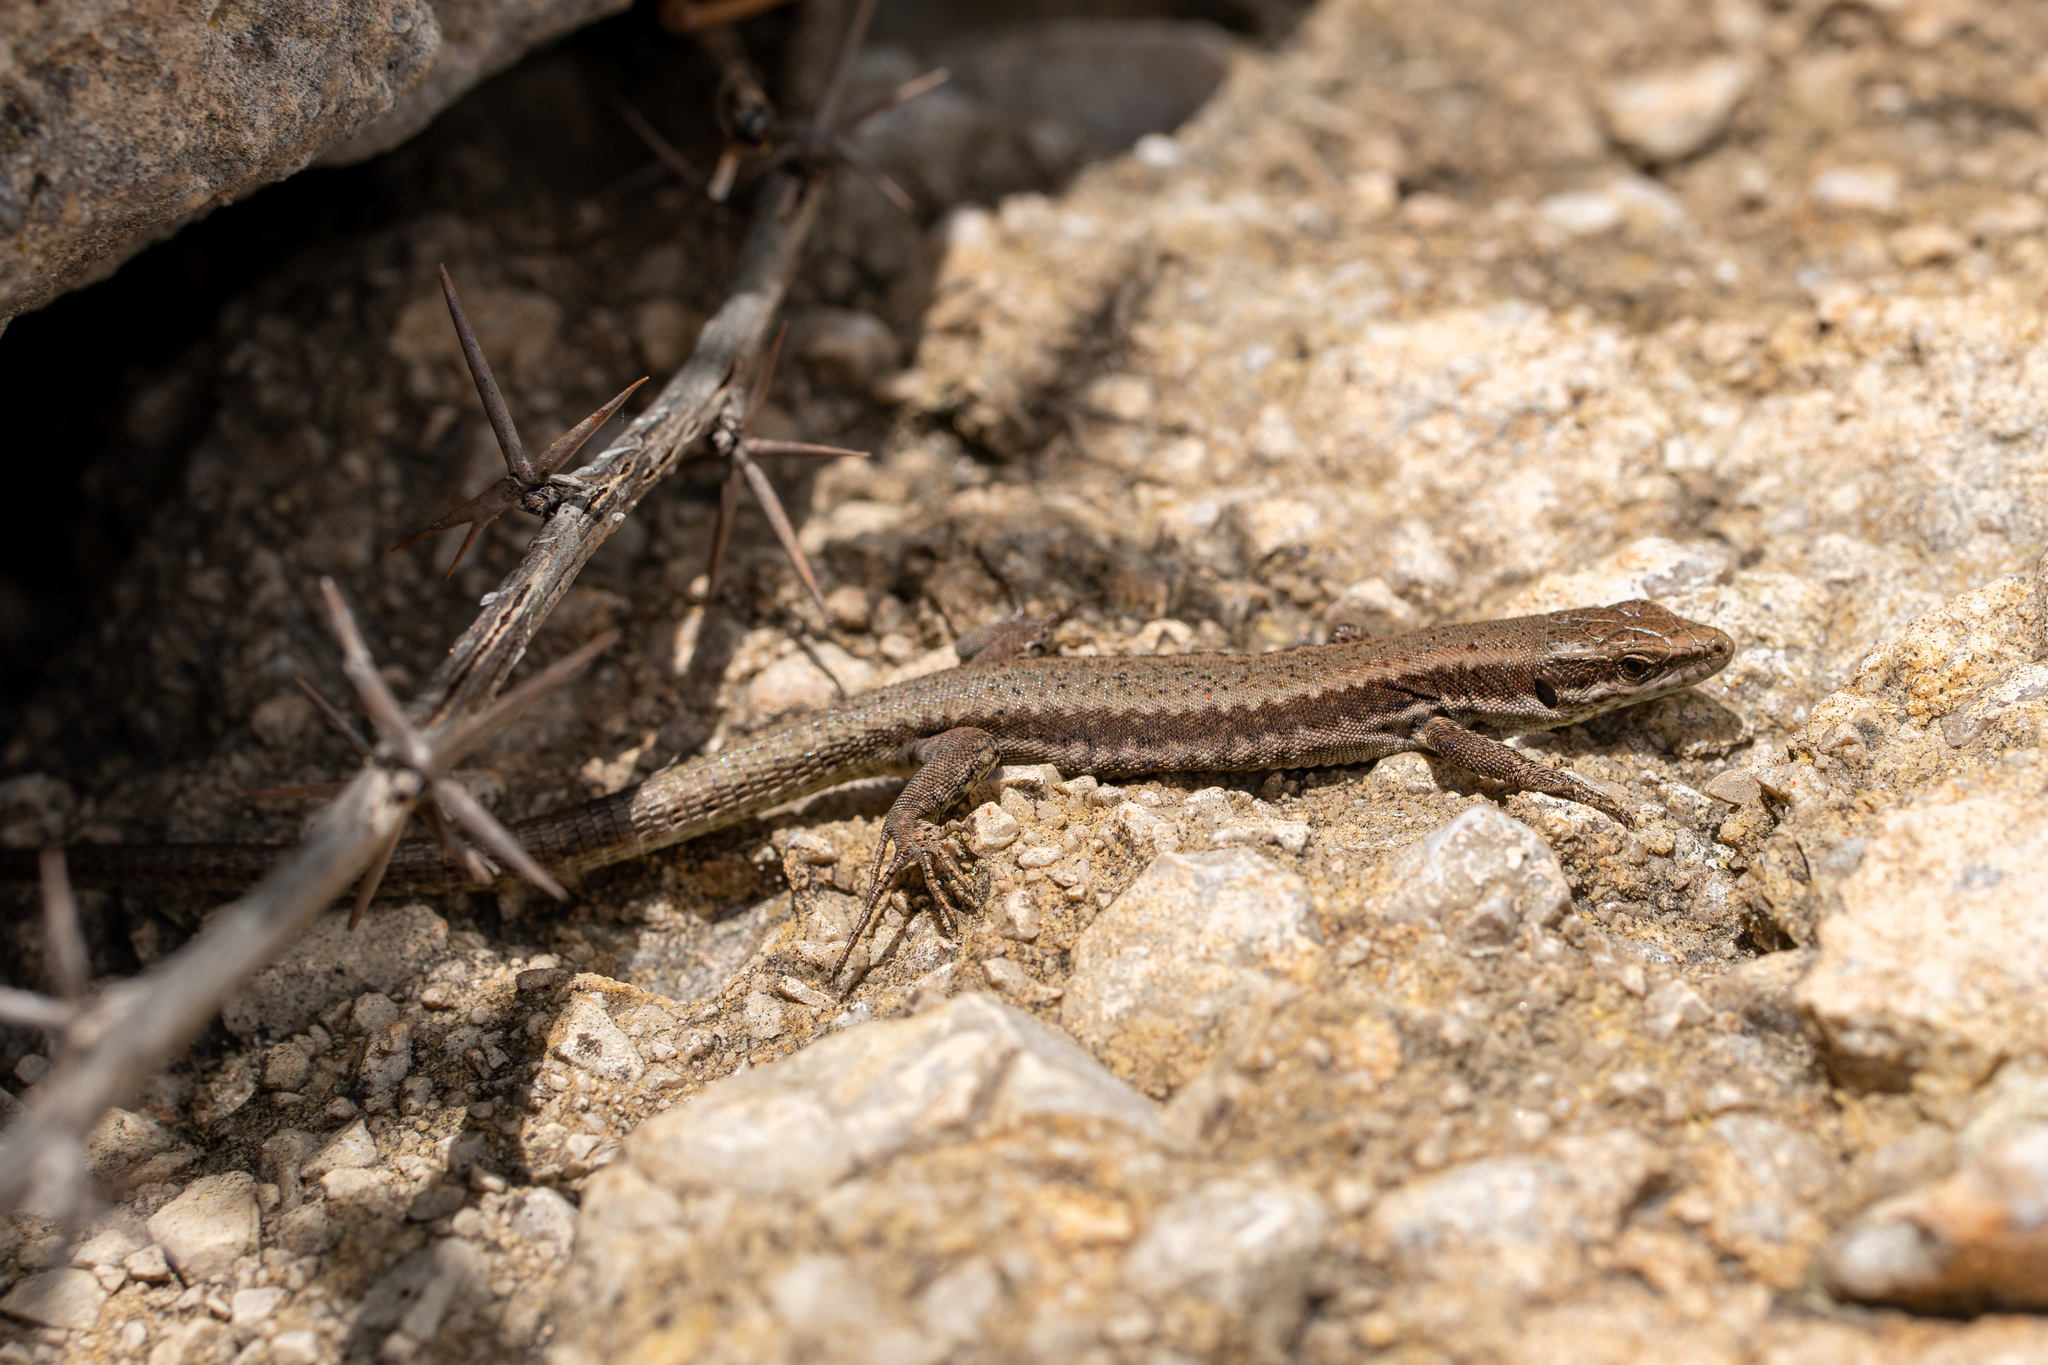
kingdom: Animalia
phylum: Chordata
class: Squamata
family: Lacertidae
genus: Podarcis
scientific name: Podarcis muralis
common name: Common wall lizard
